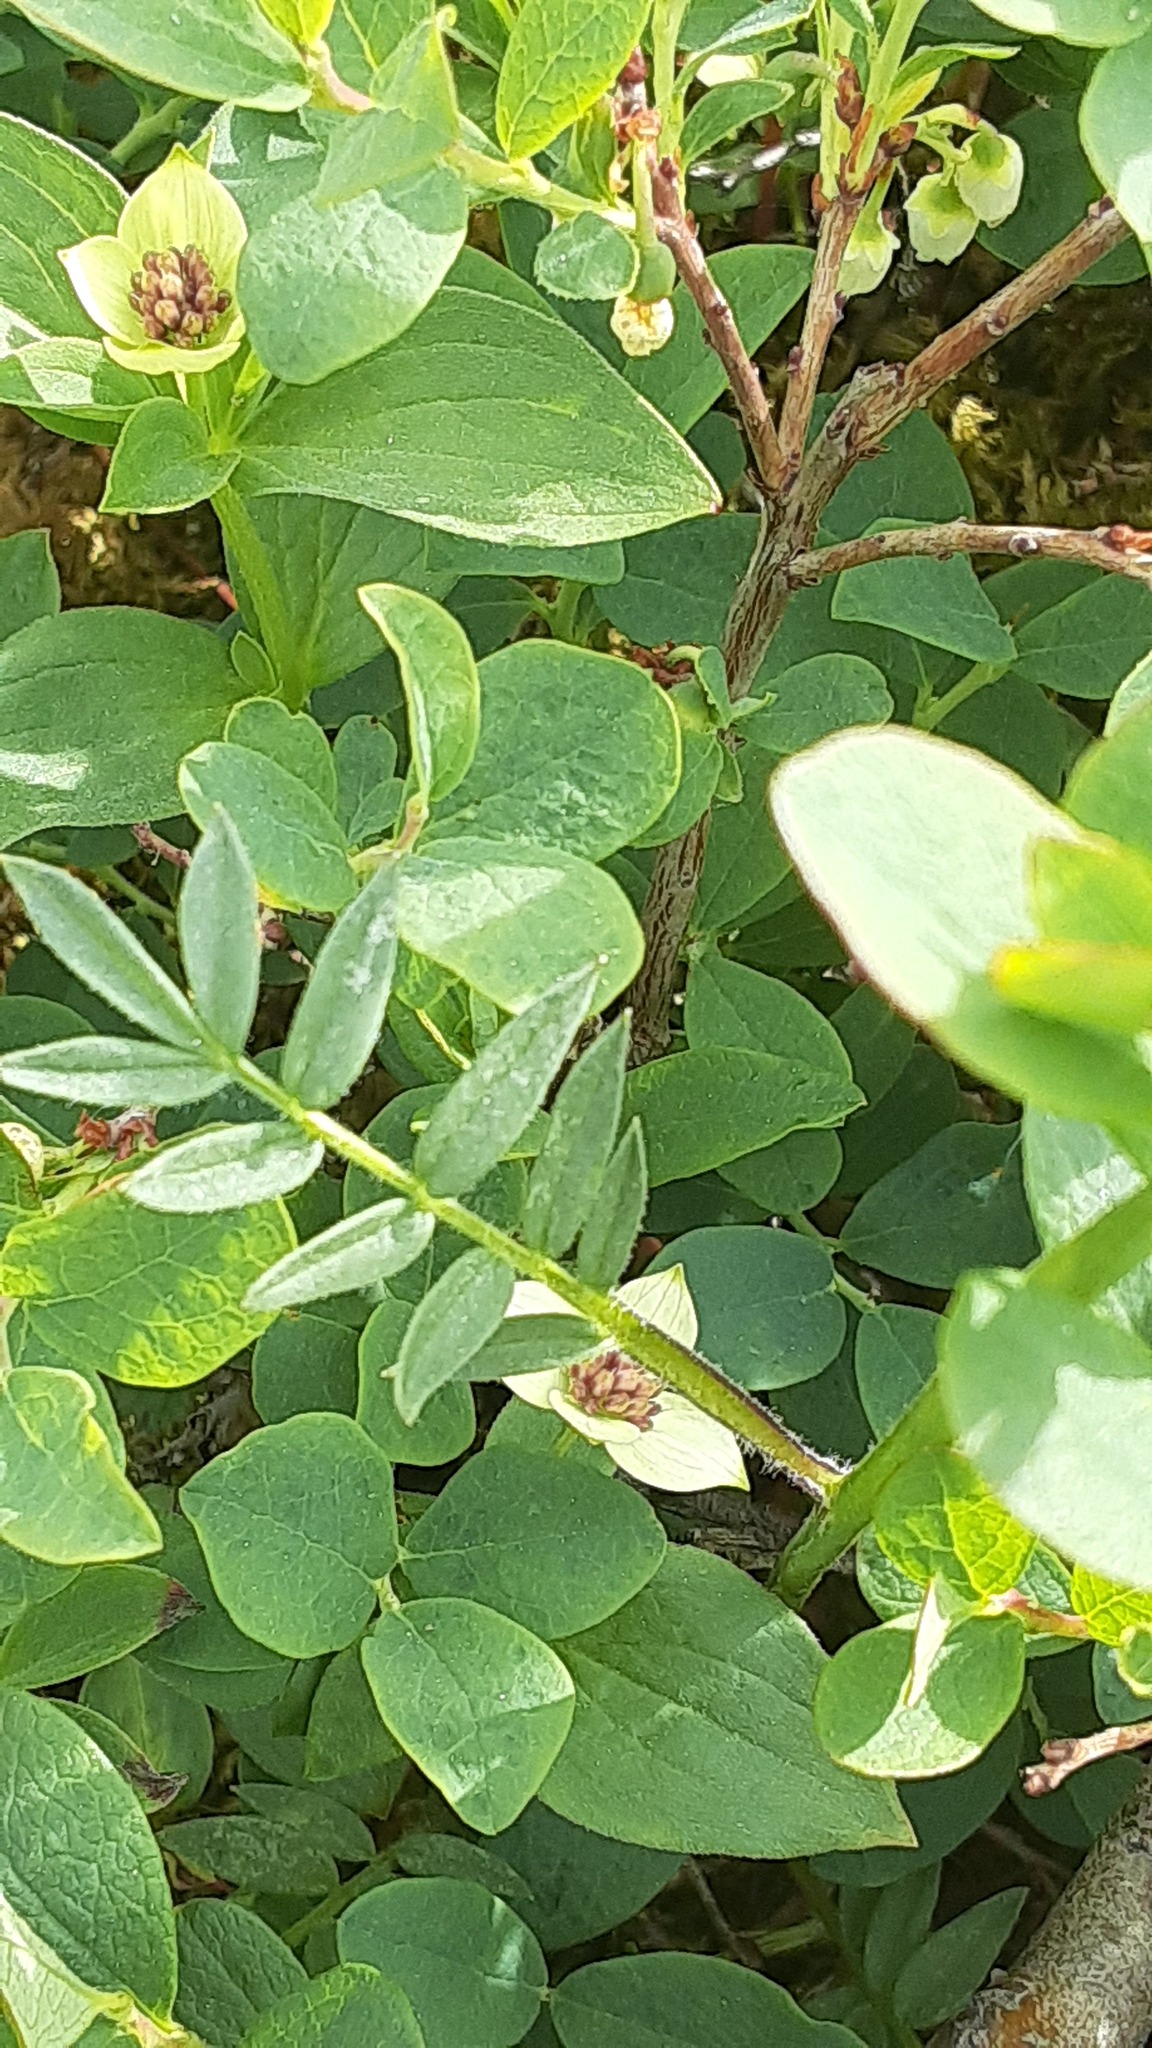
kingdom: Plantae
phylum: Tracheophyta
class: Magnoliopsida
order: Ericales
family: Polemoniaceae
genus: Polemonium
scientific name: Polemonium acutiflorum
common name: Tall jacob's-ladder
